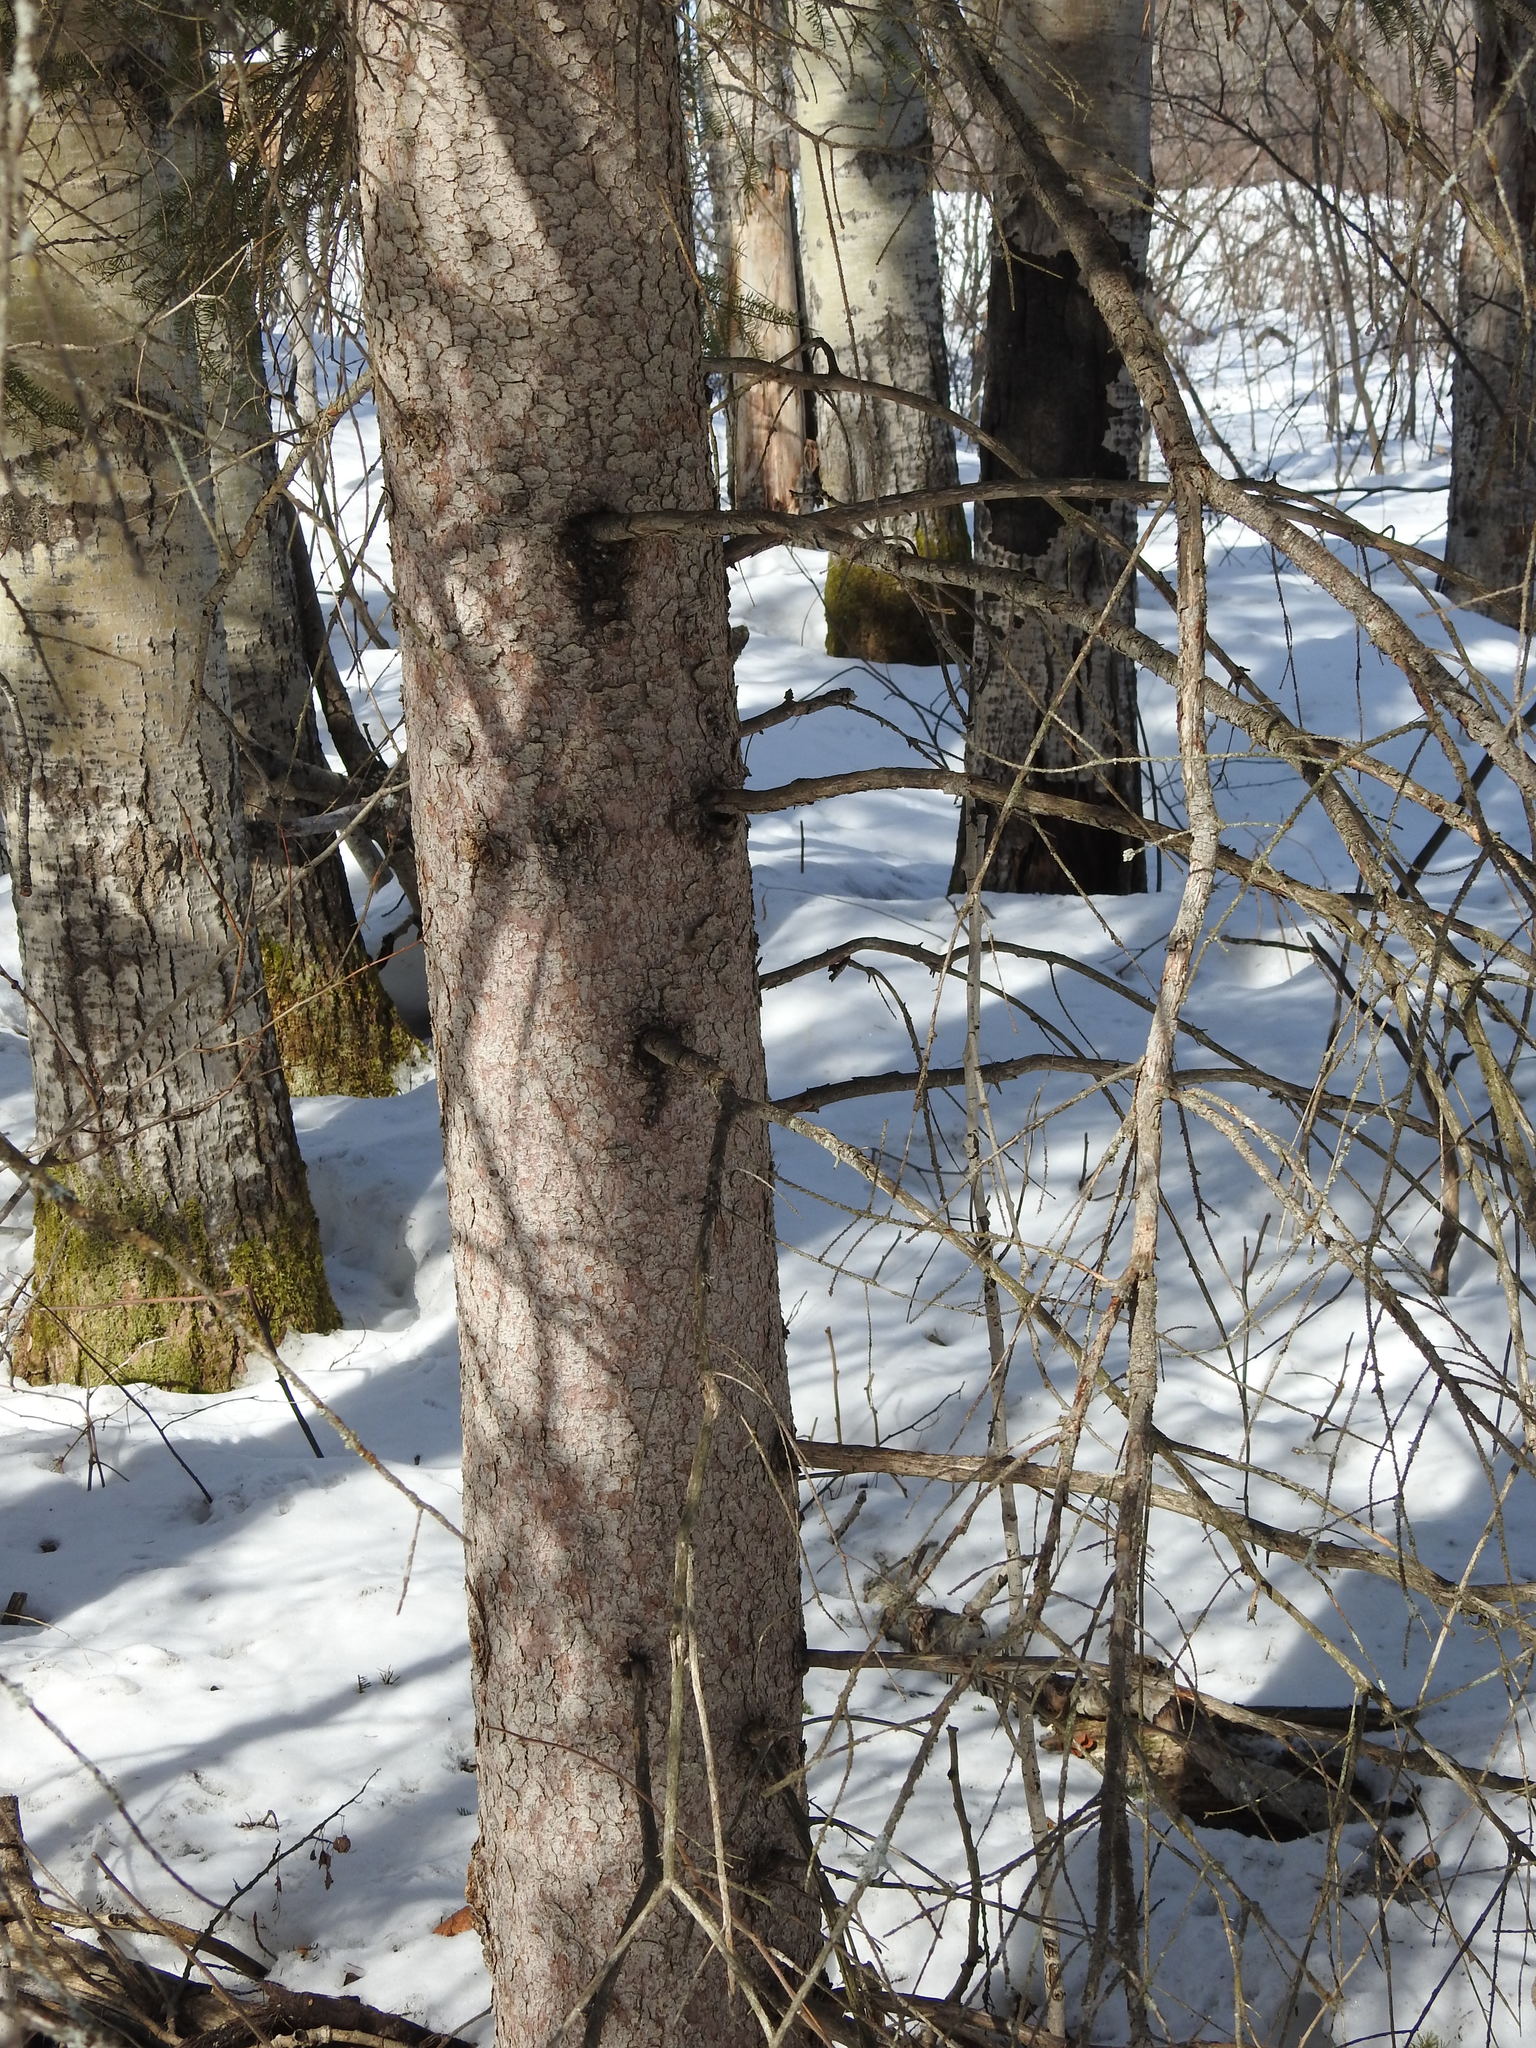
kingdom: Plantae
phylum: Tracheophyta
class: Pinopsida
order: Pinales
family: Pinaceae
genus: Picea
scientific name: Picea glauca
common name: White spruce
